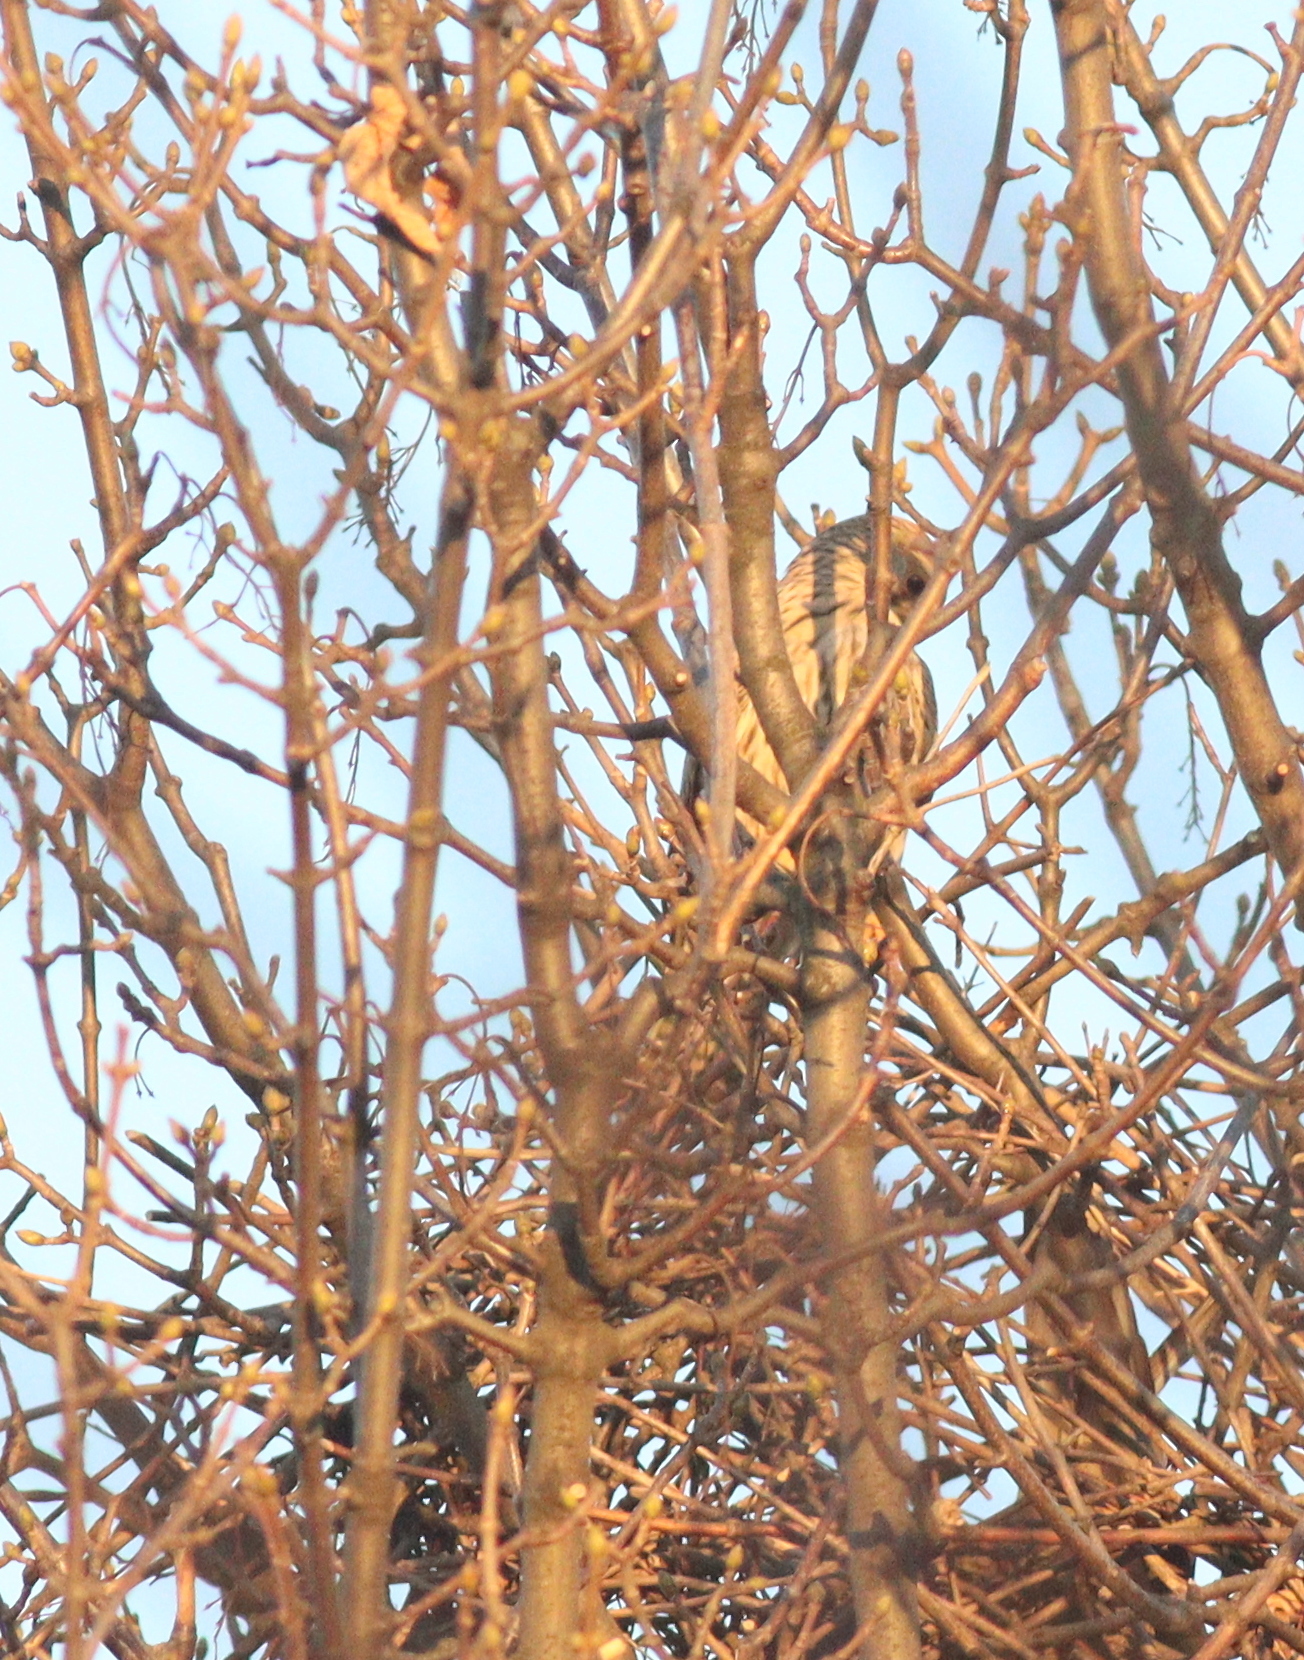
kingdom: Animalia
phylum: Chordata
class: Aves
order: Falconiformes
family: Falconidae
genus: Falco
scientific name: Falco tinnunculus
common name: Common kestrel
